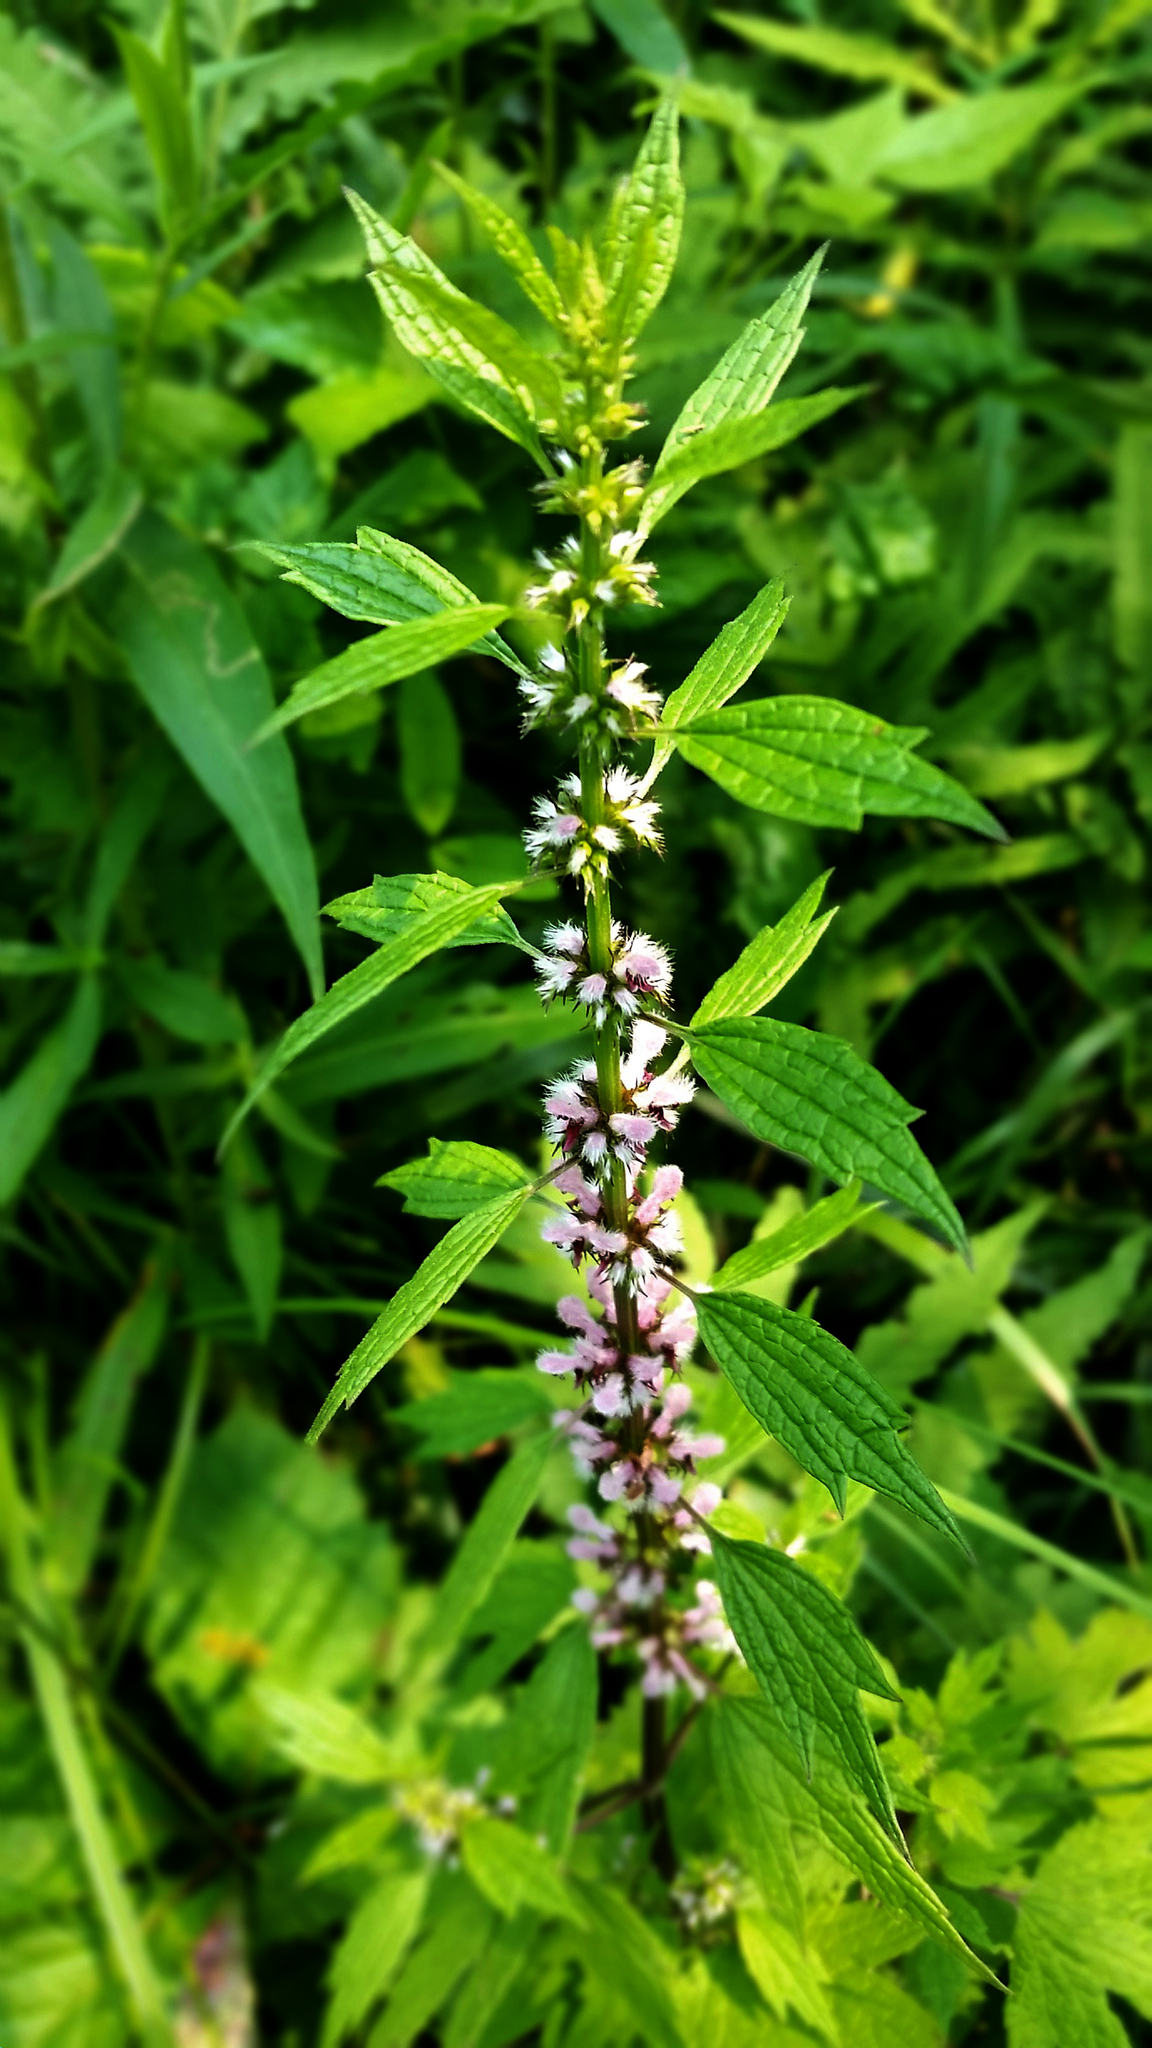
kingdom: Plantae
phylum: Tracheophyta
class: Magnoliopsida
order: Lamiales
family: Lamiaceae
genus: Leonurus
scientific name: Leonurus cardiaca
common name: Motherwort
